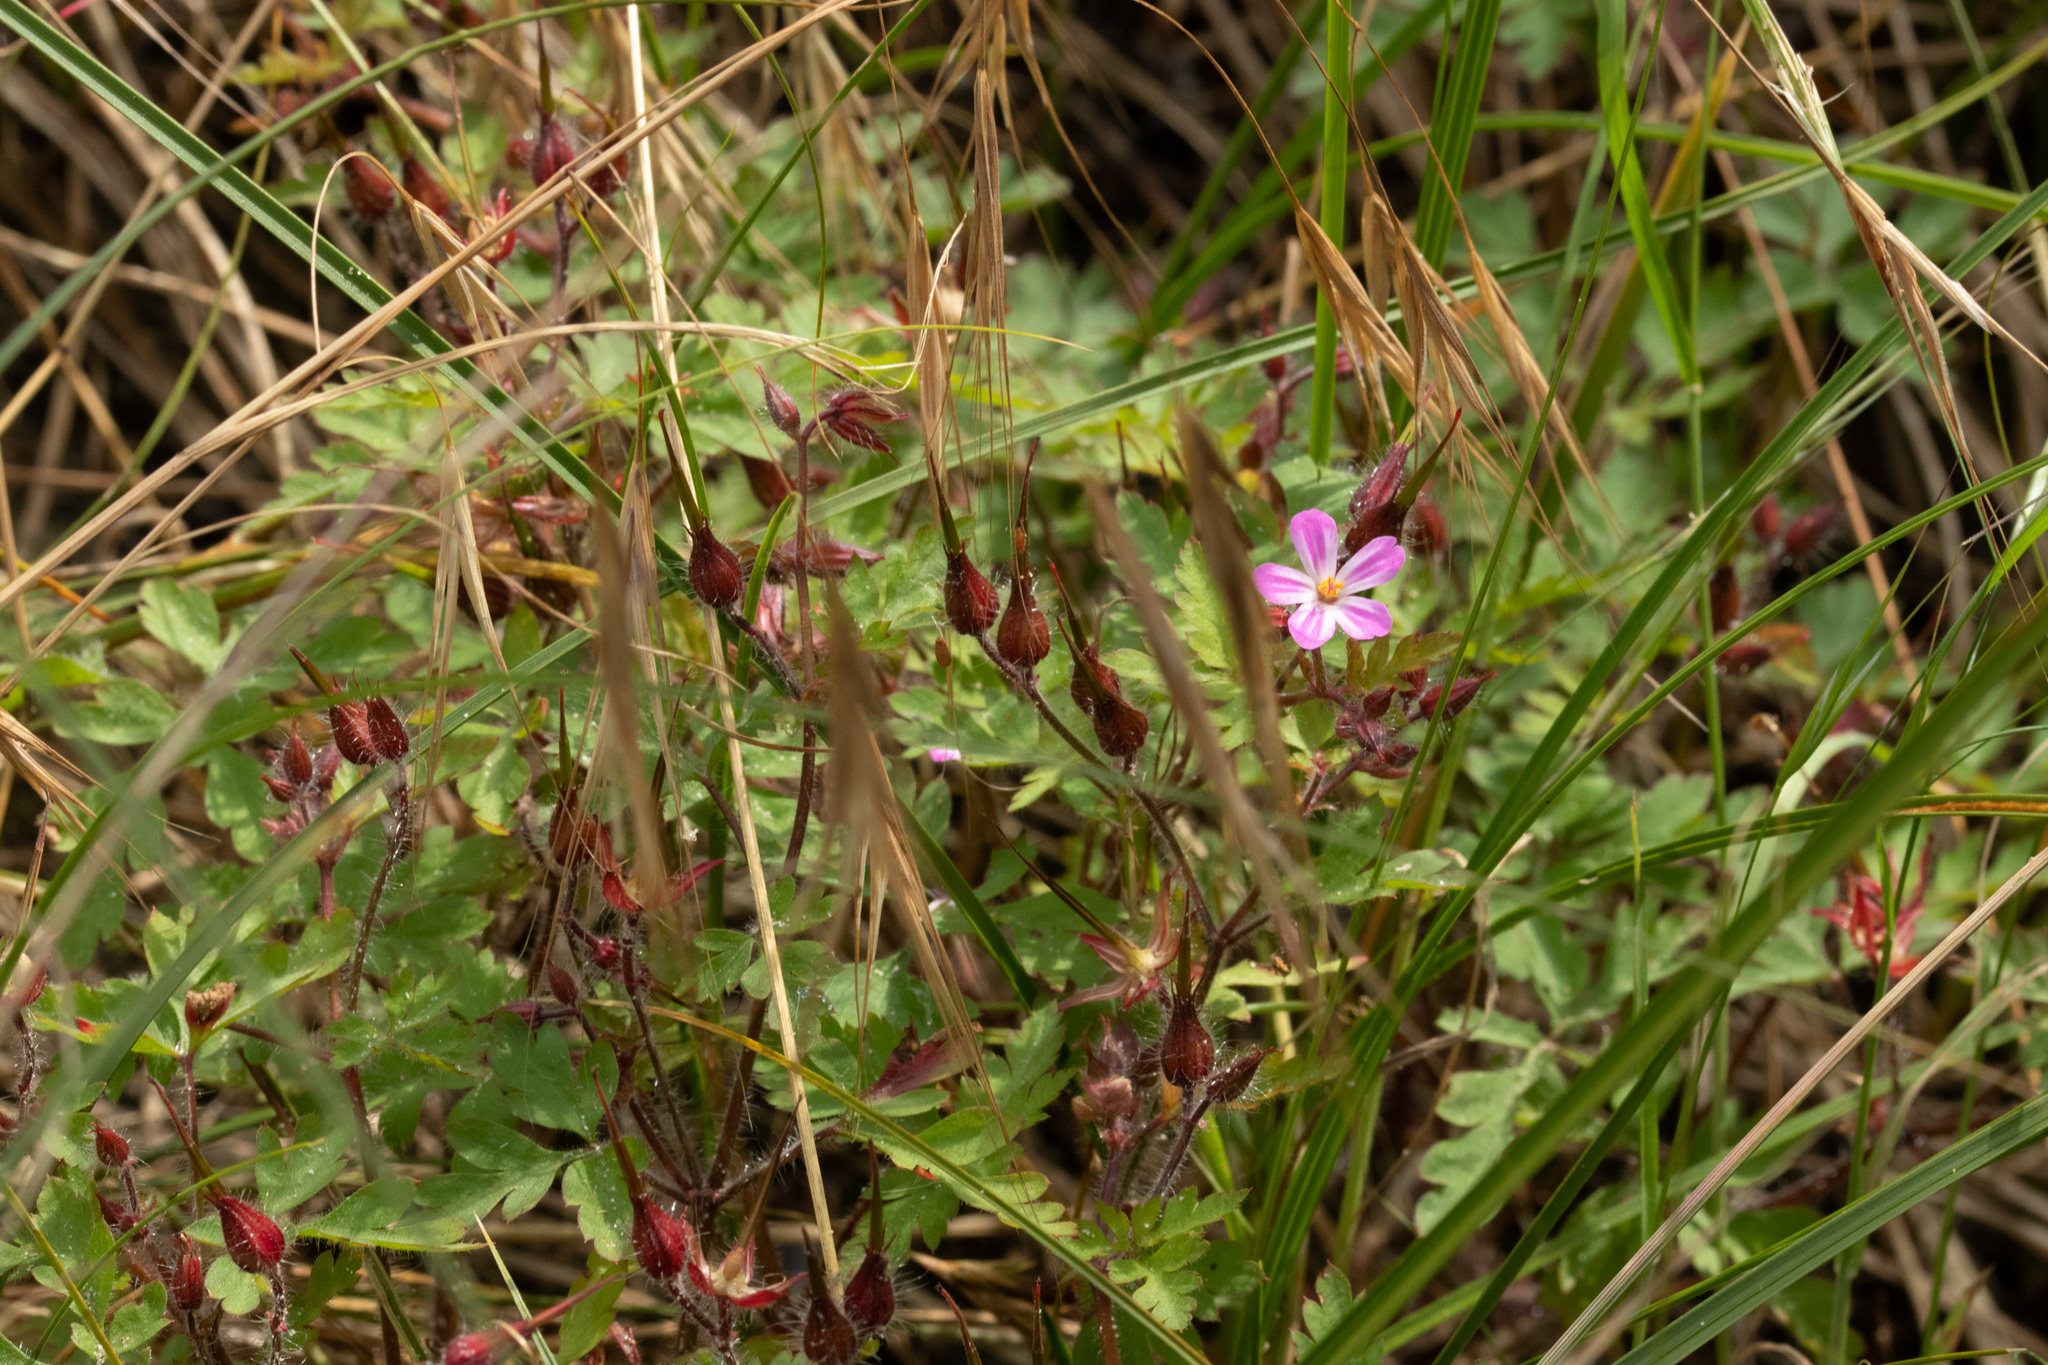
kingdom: Plantae
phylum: Tracheophyta
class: Magnoliopsida
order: Geraniales
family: Geraniaceae
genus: Geranium
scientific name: Geranium robertianum
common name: Herb-robert
